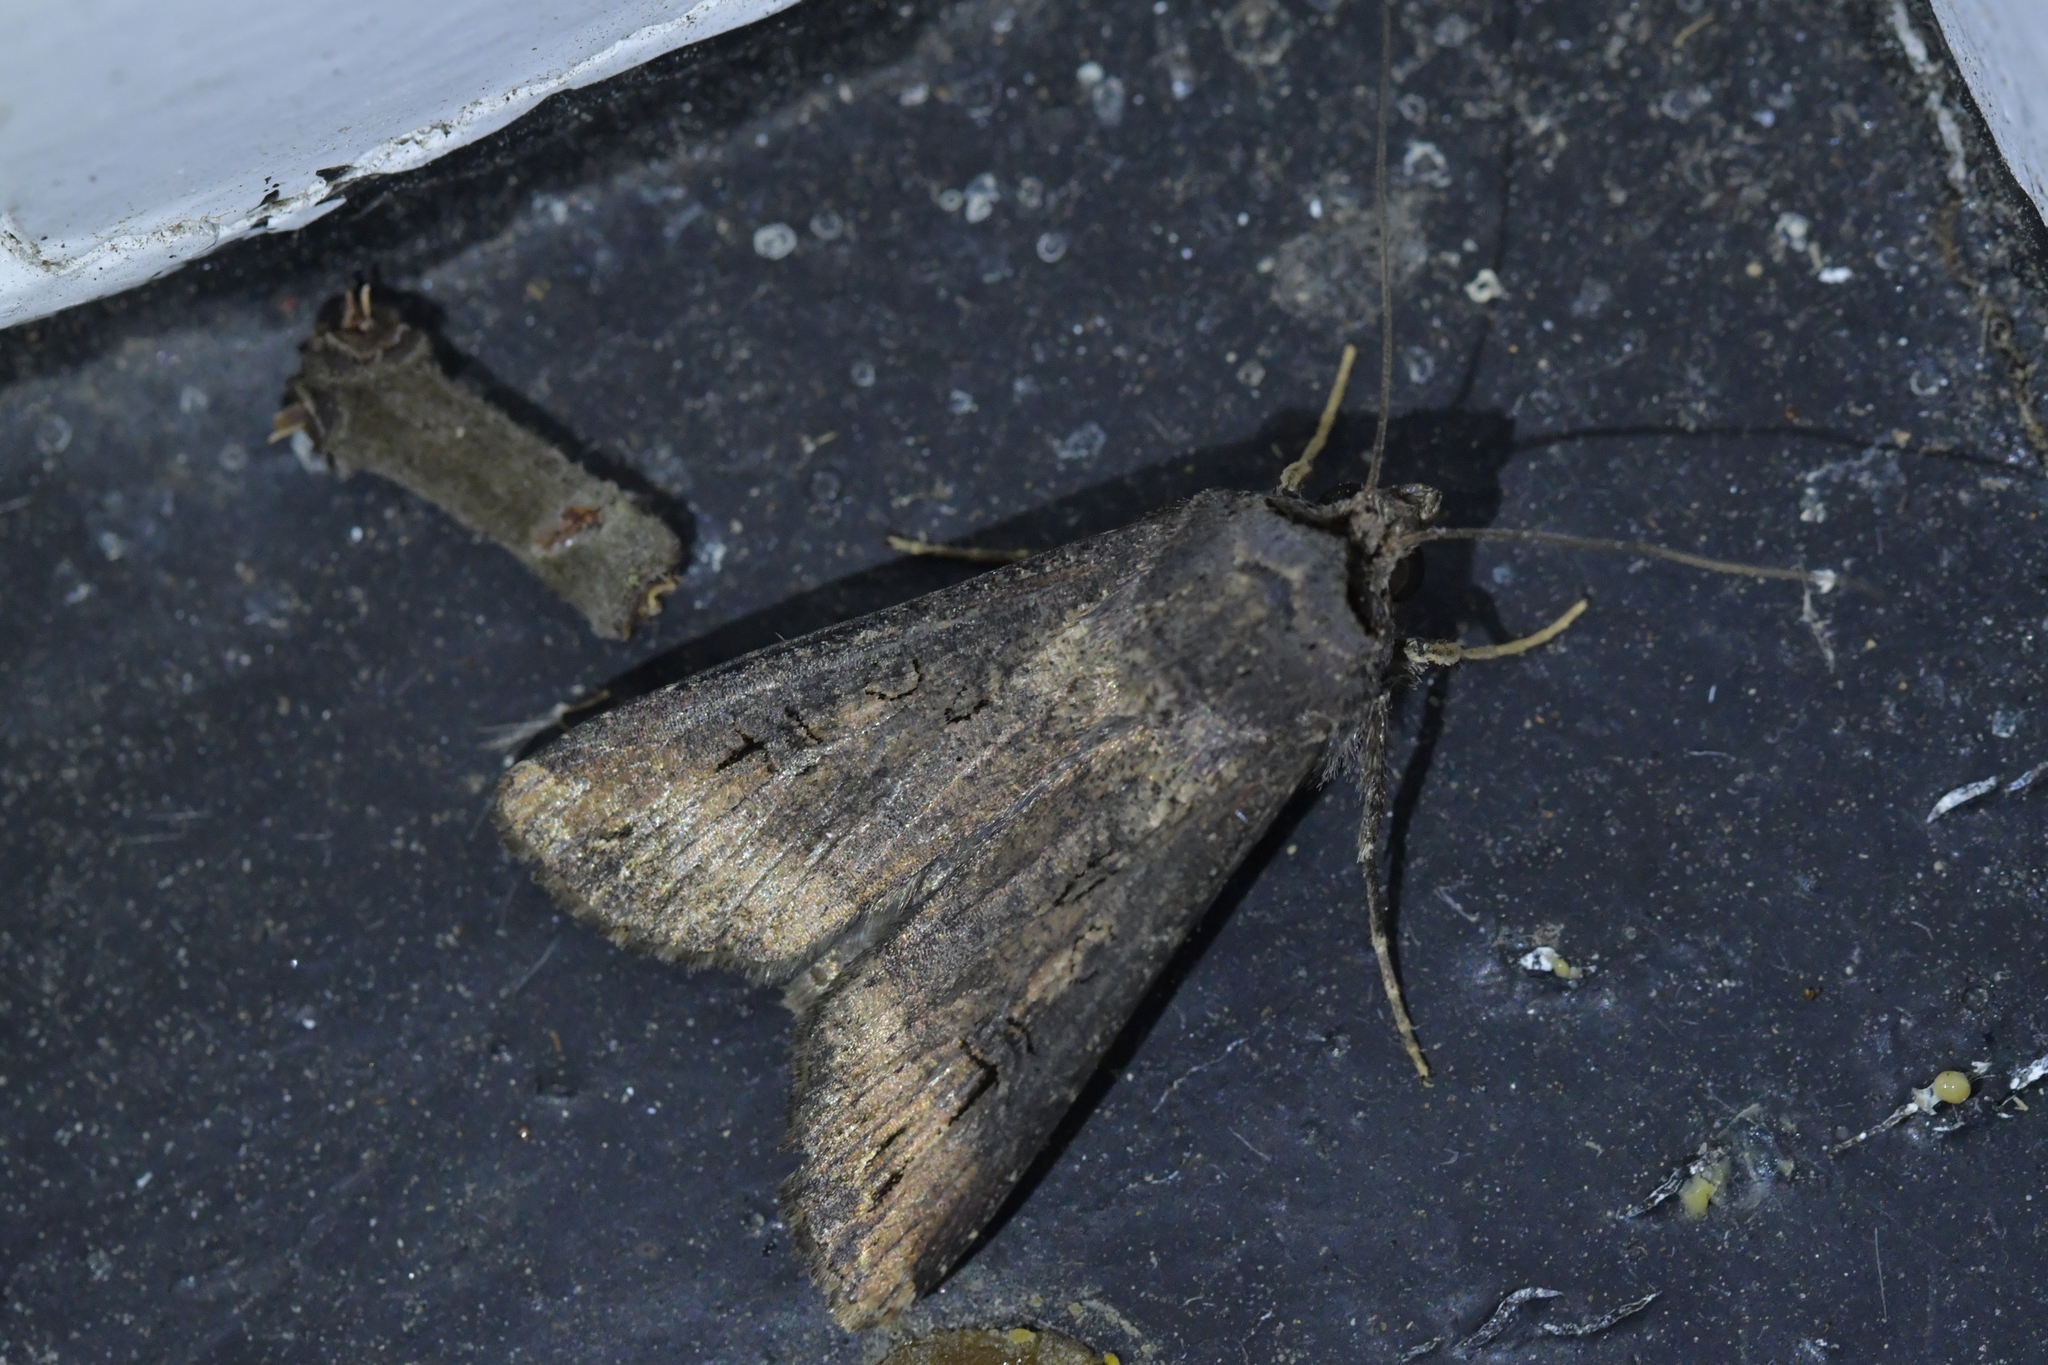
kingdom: Animalia
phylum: Arthropoda
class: Insecta
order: Lepidoptera
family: Noctuidae
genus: Agrotis
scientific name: Agrotis ipsilon
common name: Dark sword-grass
